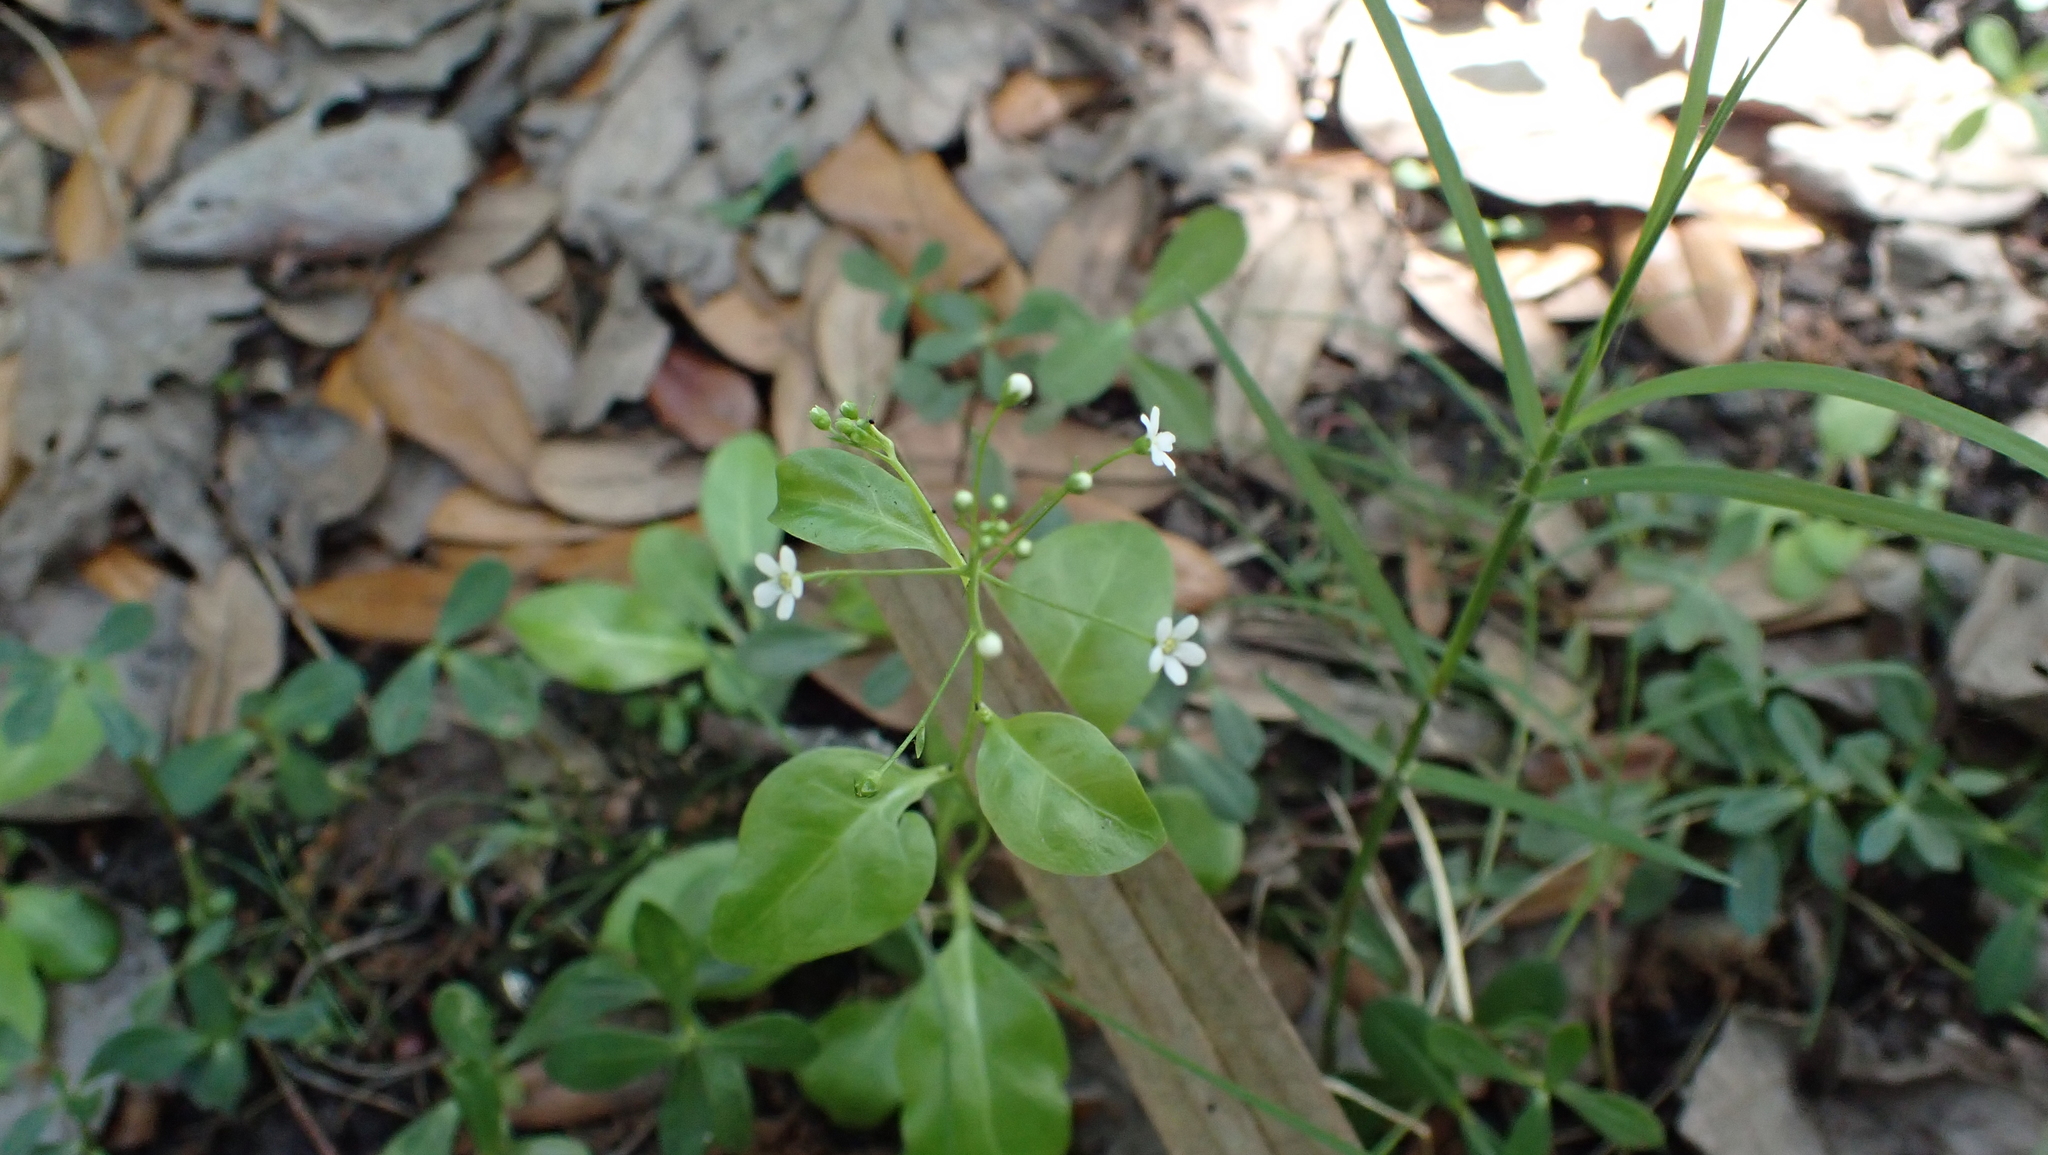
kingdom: Plantae
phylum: Tracheophyta
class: Magnoliopsida
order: Ericales
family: Primulaceae
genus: Samolus
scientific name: Samolus parviflorus
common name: False water pimpernel
